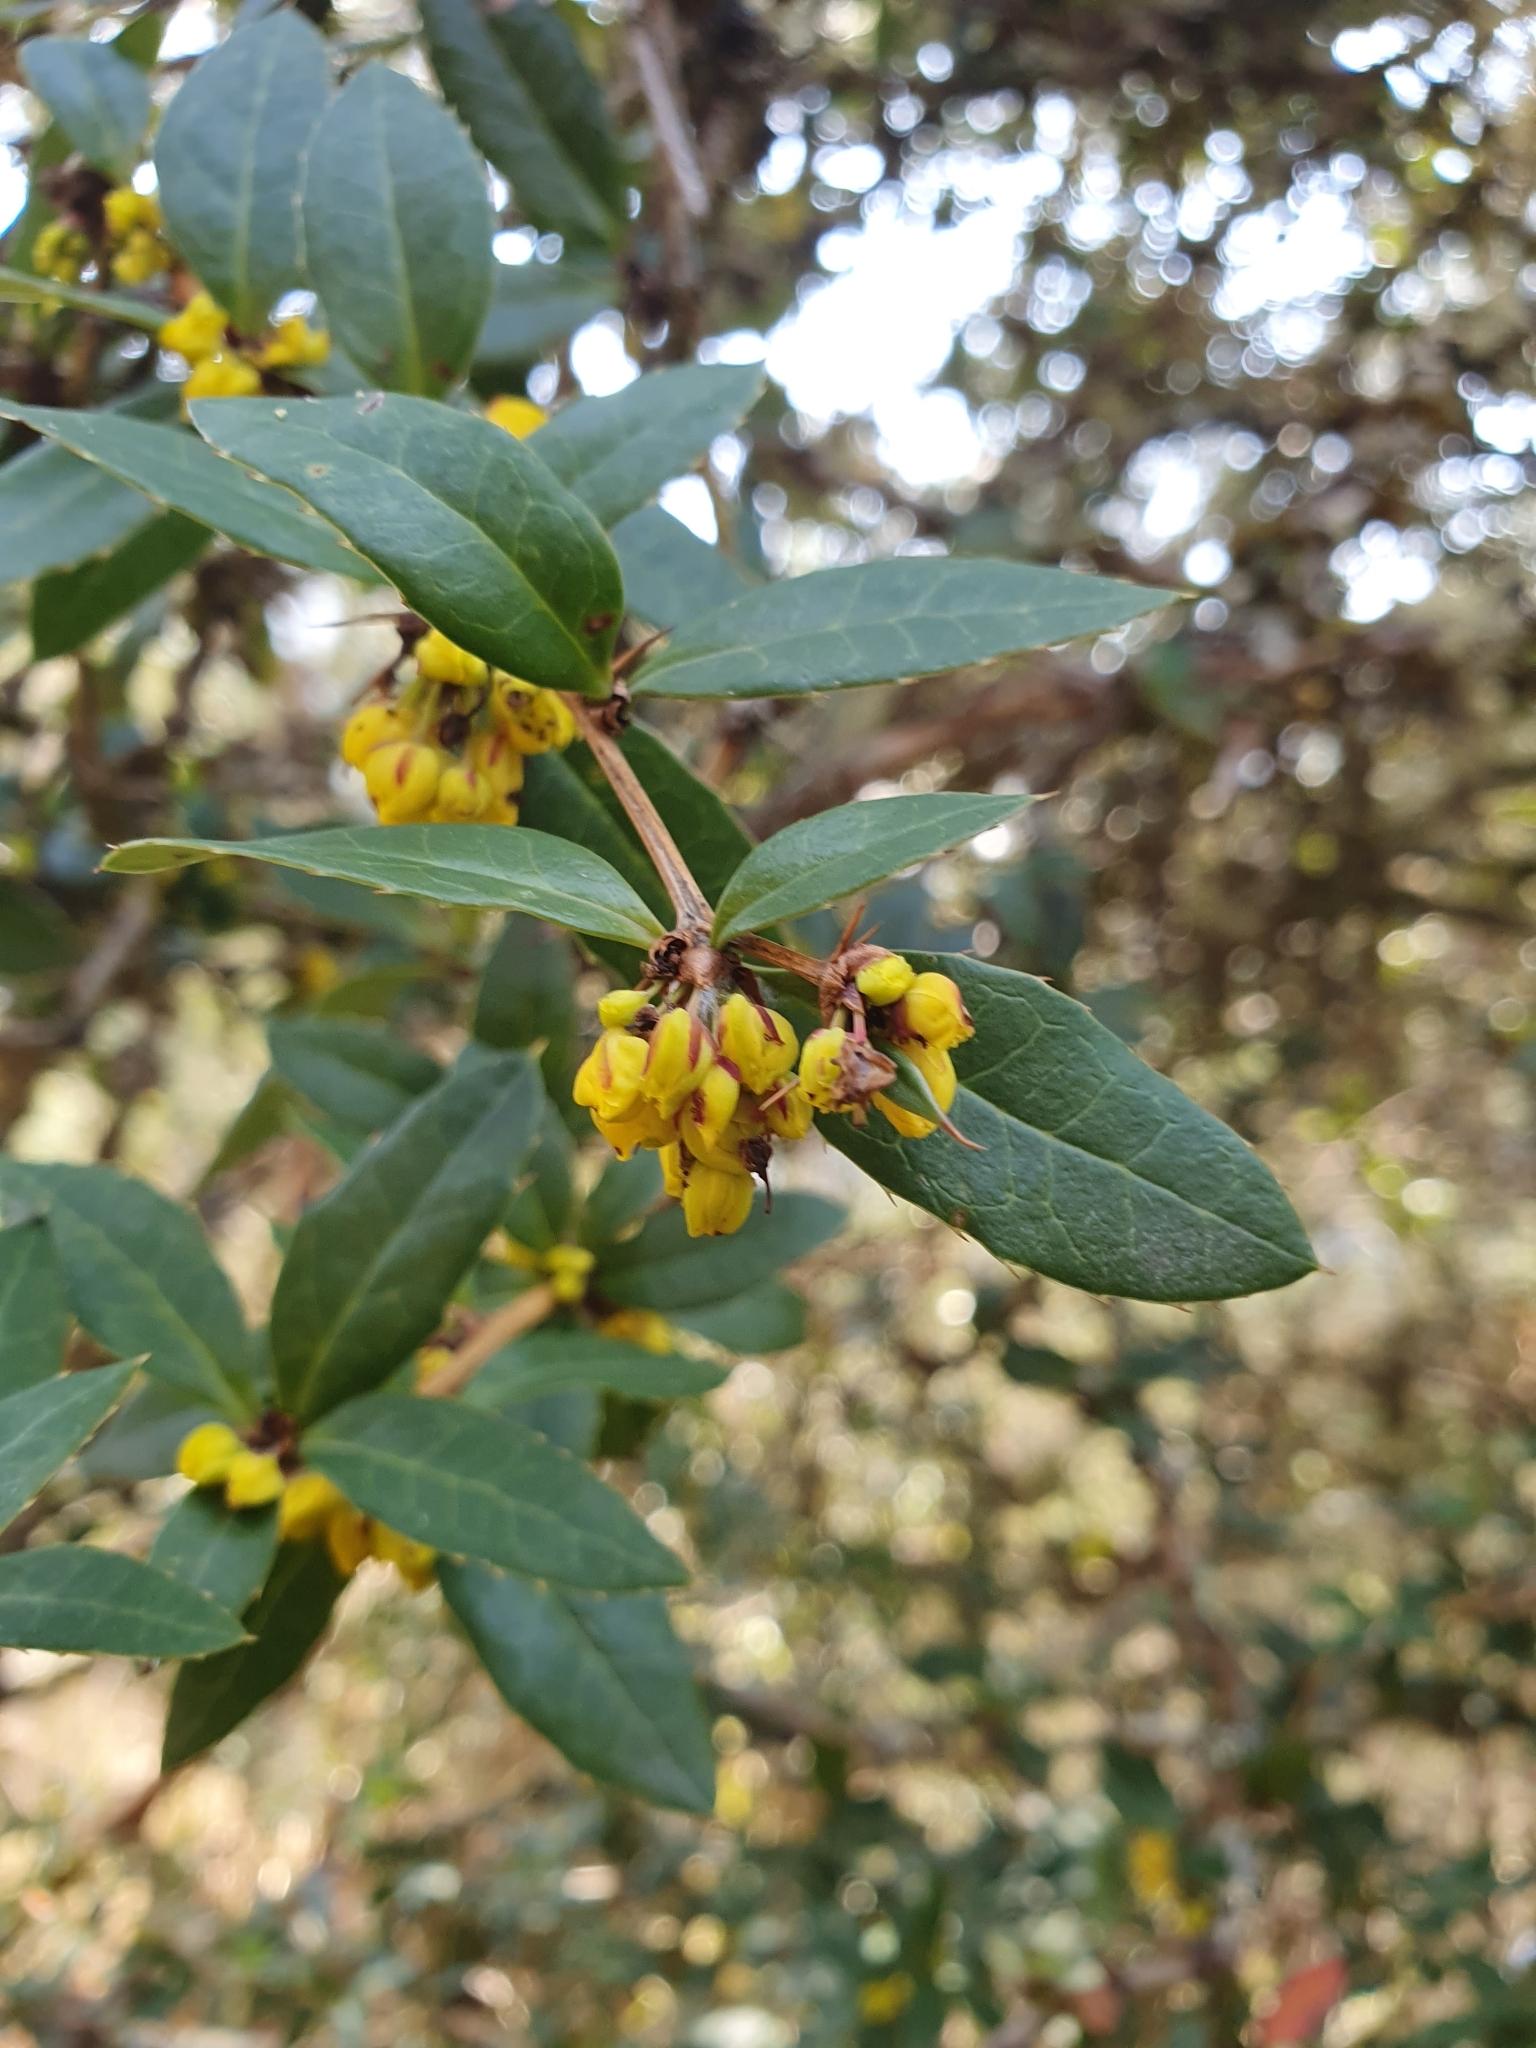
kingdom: Plantae
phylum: Tracheophyta
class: Magnoliopsida
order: Ranunculales
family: Berberidaceae
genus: Berberis
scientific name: Berberis kawakamii
